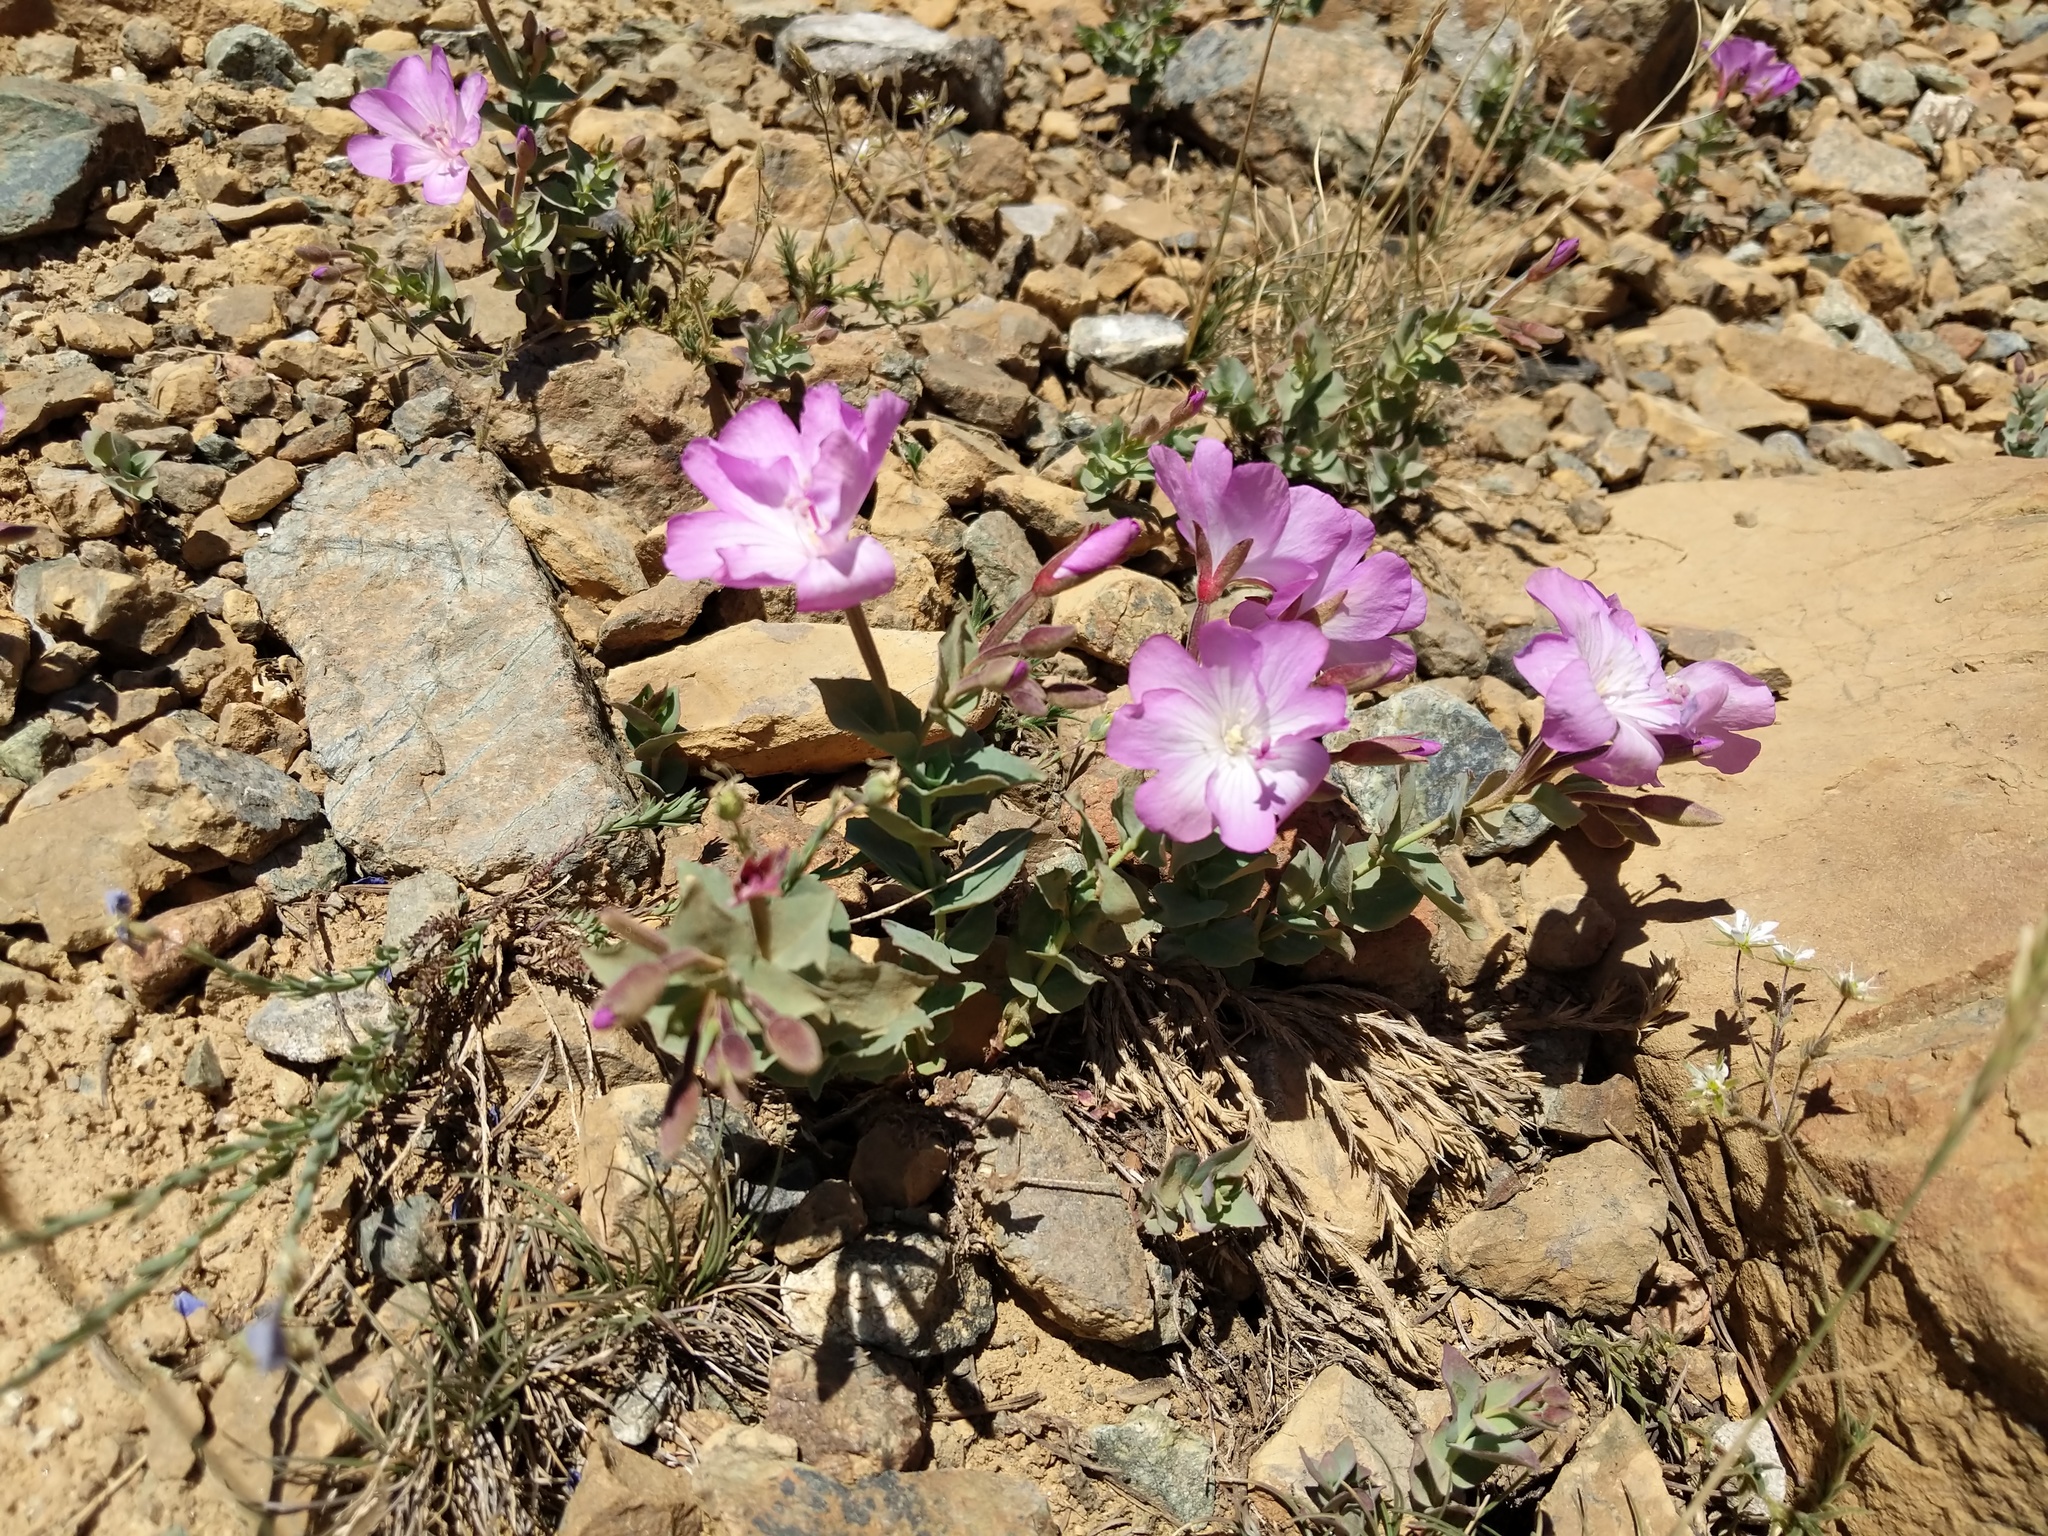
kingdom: Plantae
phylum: Tracheophyta
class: Magnoliopsida
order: Myrtales
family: Onagraceae
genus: Epilobium
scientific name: Epilobium siskiyouense
